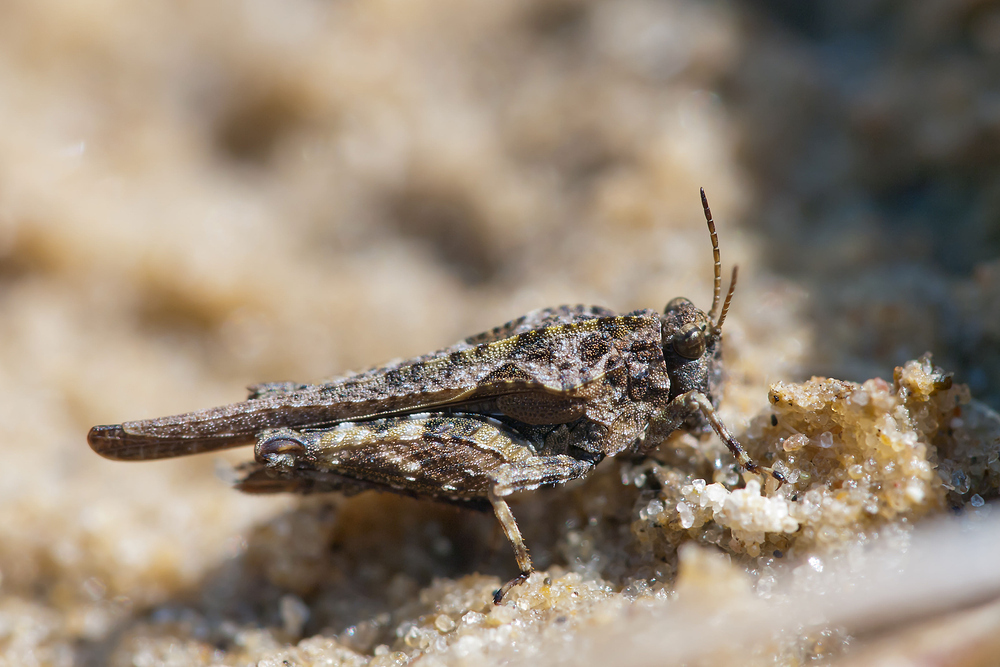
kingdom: Animalia
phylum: Arthropoda
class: Insecta
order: Orthoptera
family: Tetrigidae
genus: Tetrix
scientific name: Tetrix ceperoi
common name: Cepero's ground-hopper
